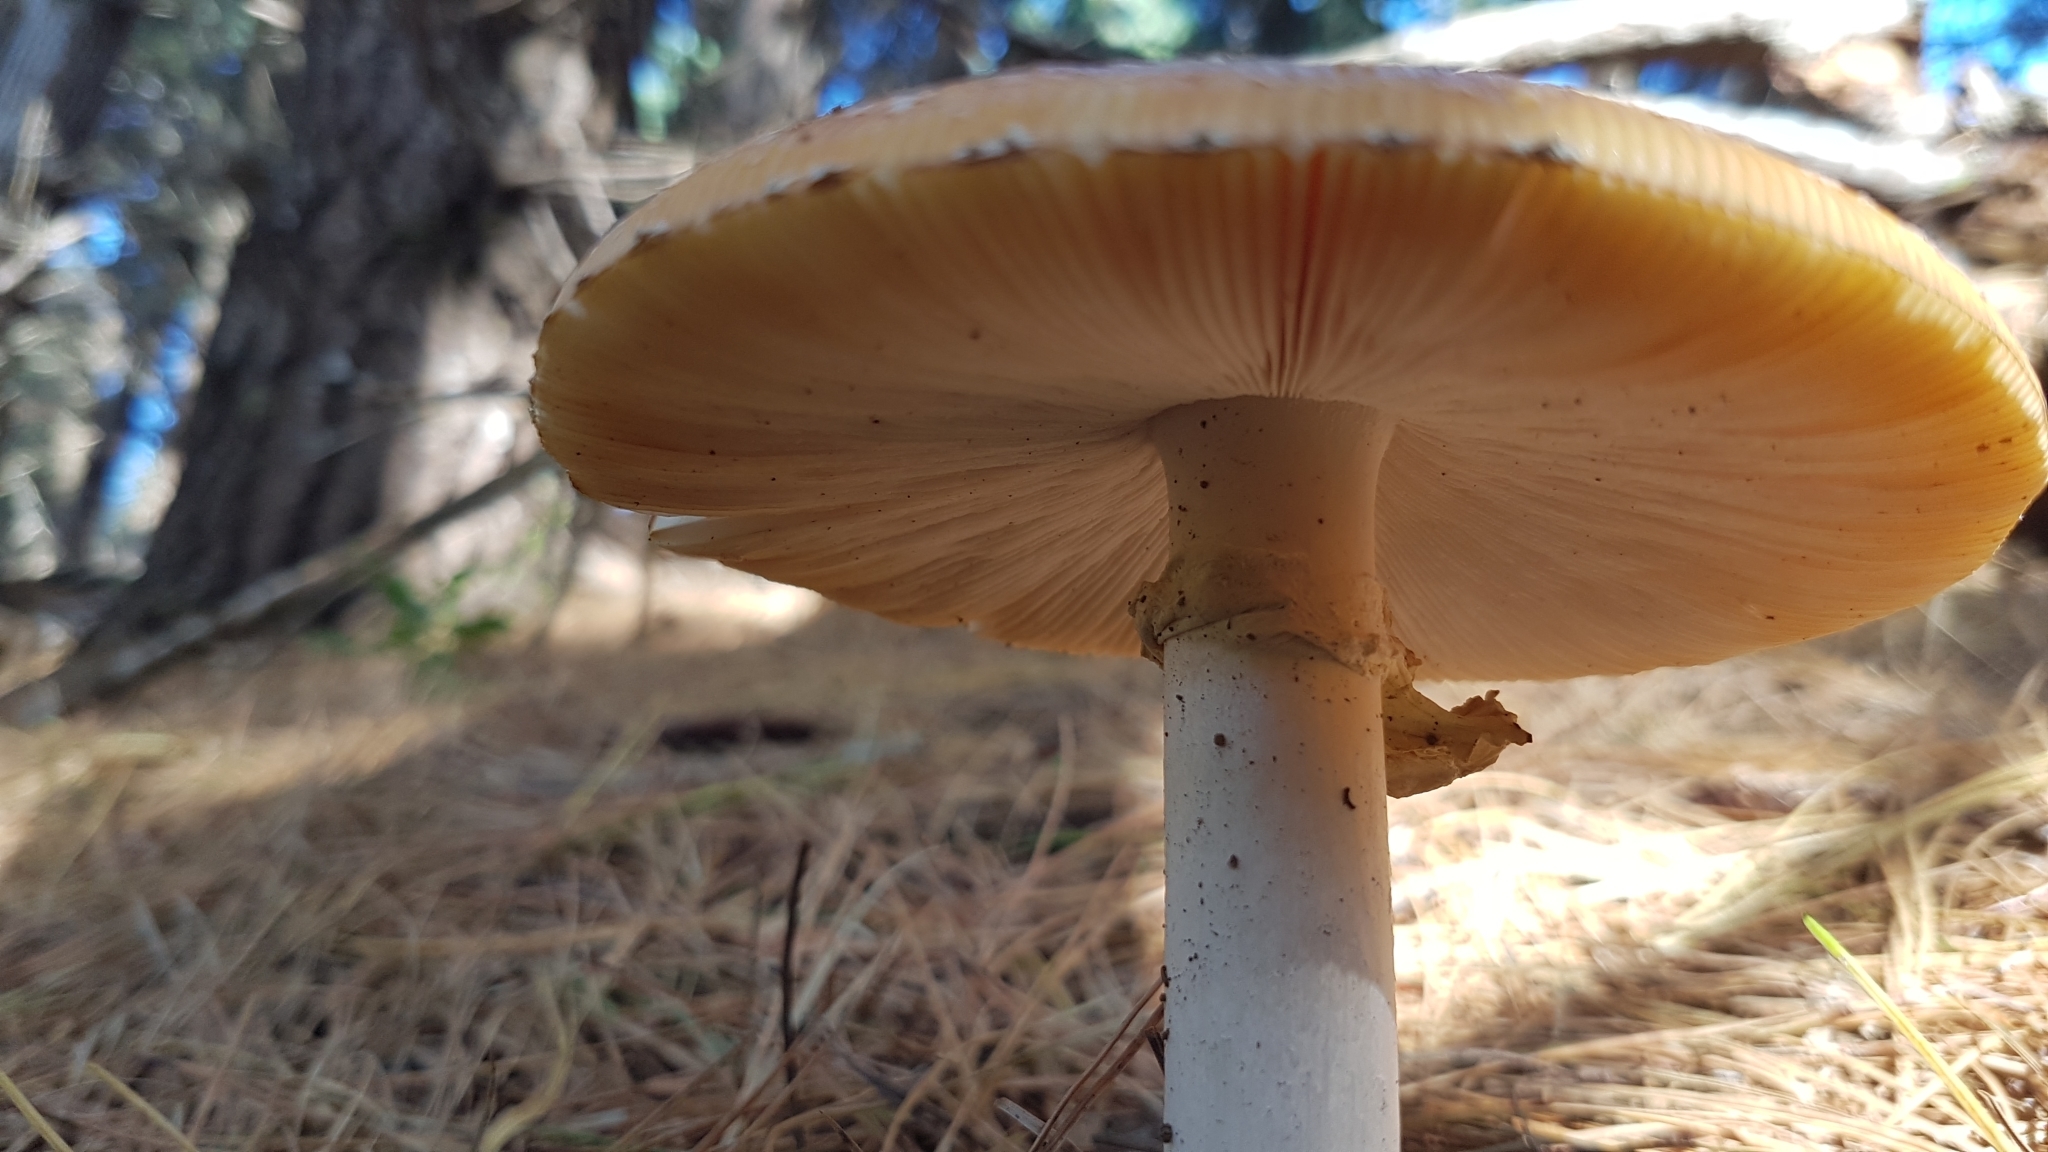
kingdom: Fungi
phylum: Basidiomycota
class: Agaricomycetes
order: Agaricales
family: Amanitaceae
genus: Amanita
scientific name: Amanita muscaria
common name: Fly agaric
